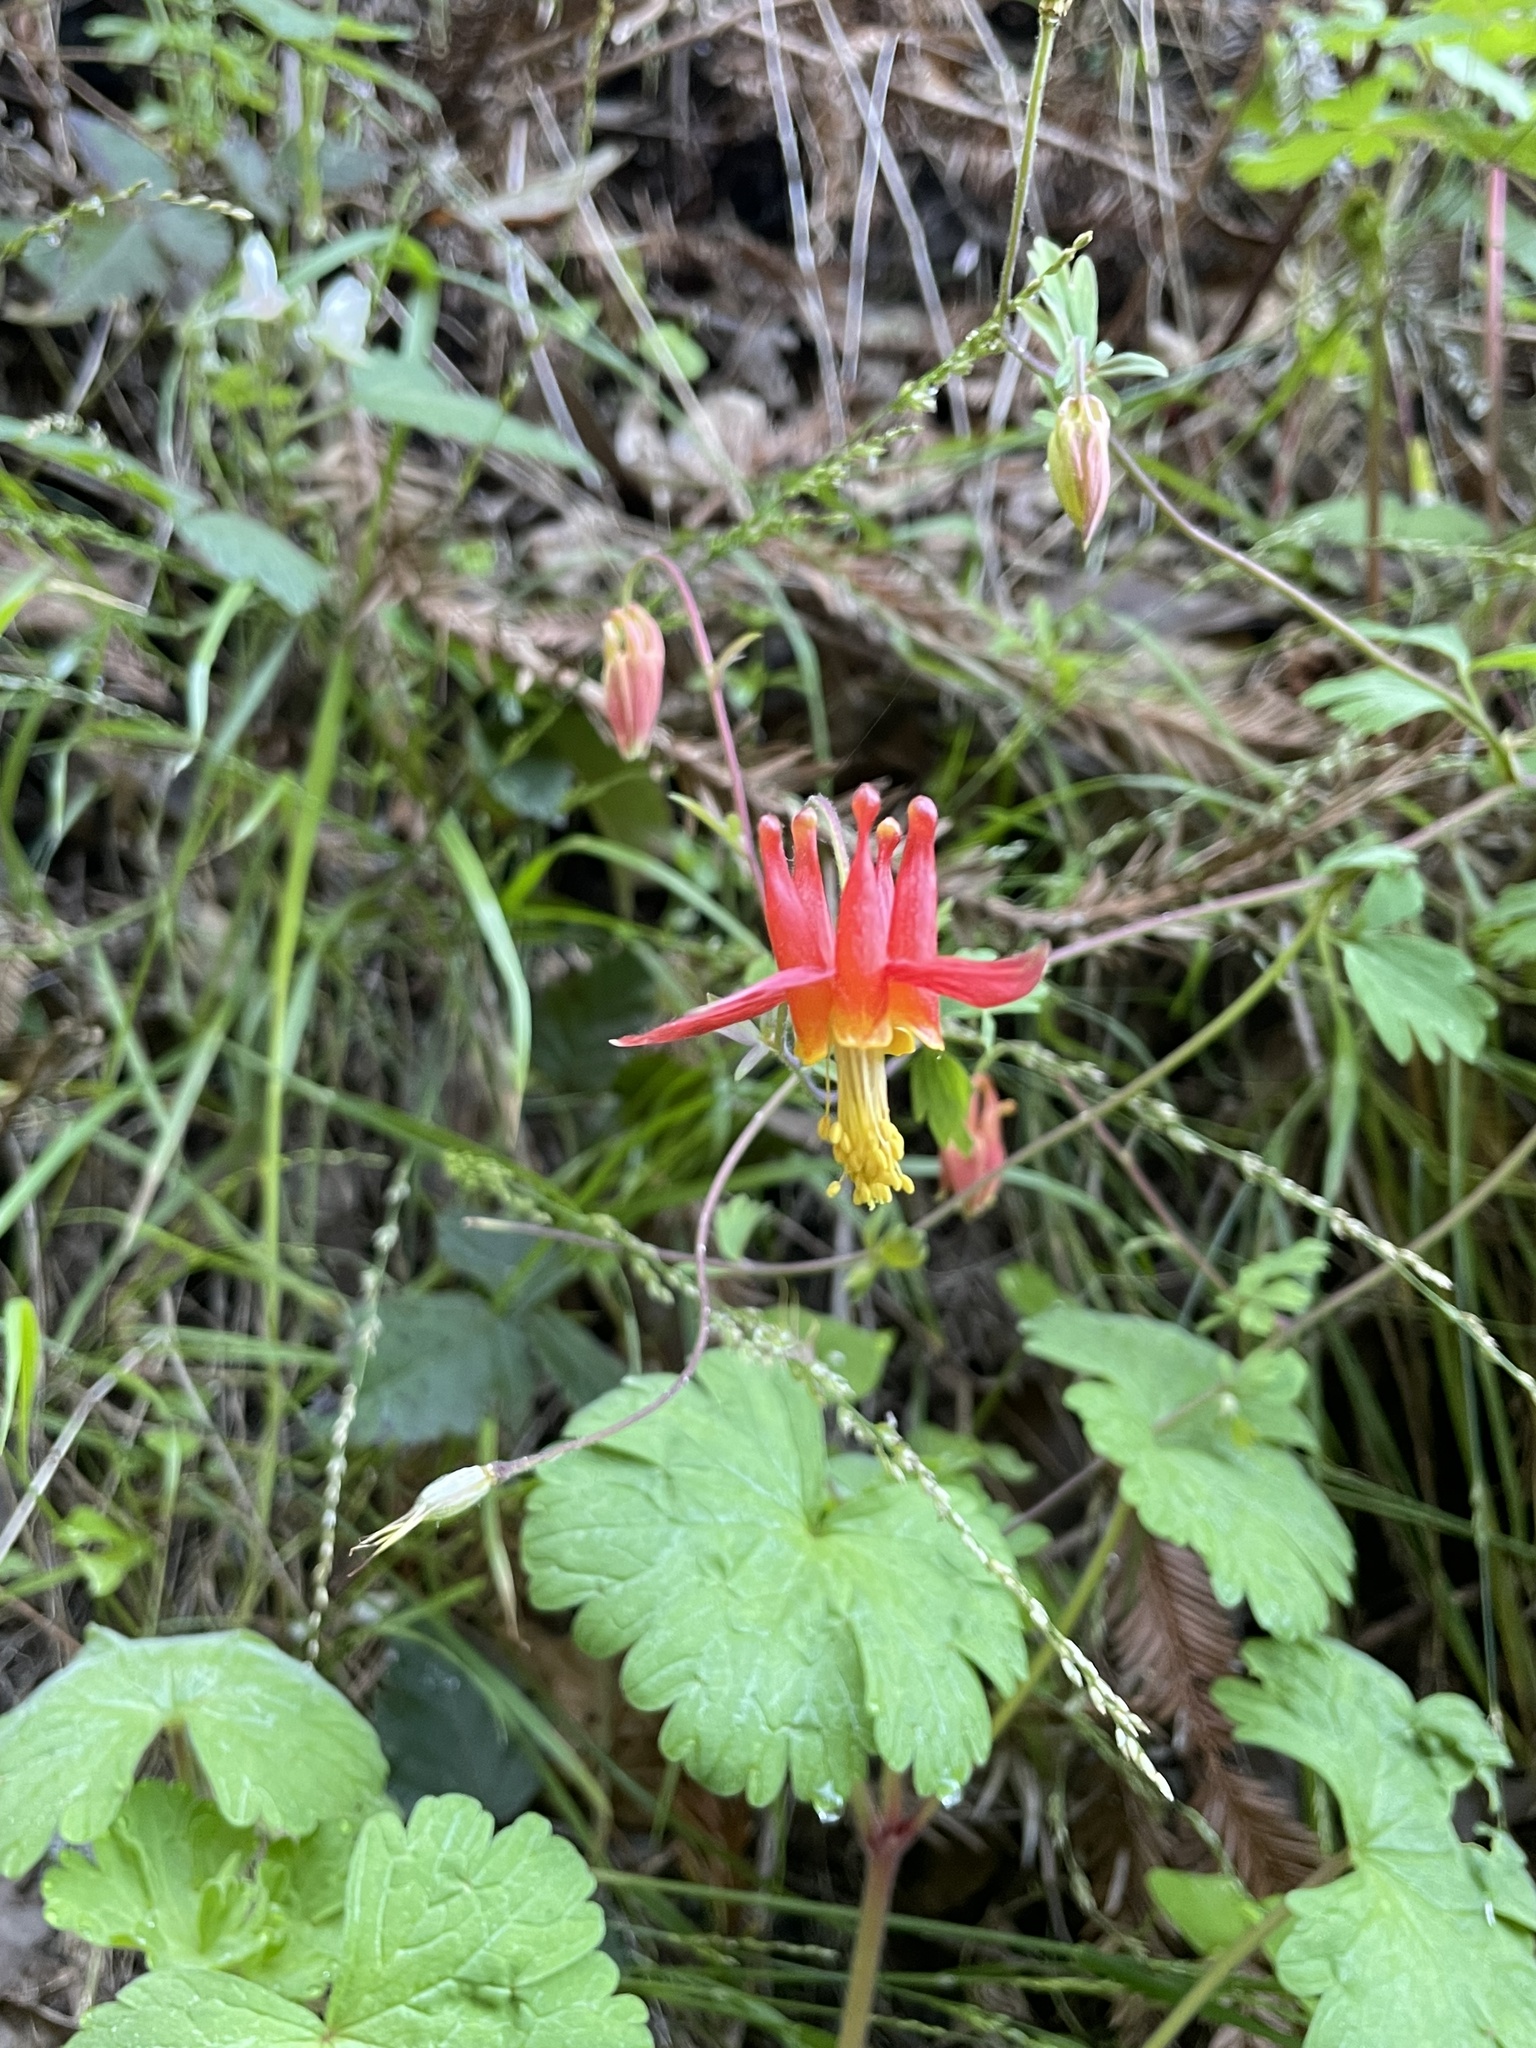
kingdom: Plantae
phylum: Tracheophyta
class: Magnoliopsida
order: Ranunculales
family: Ranunculaceae
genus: Aquilegia
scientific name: Aquilegia formosa
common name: Sitka columbine
